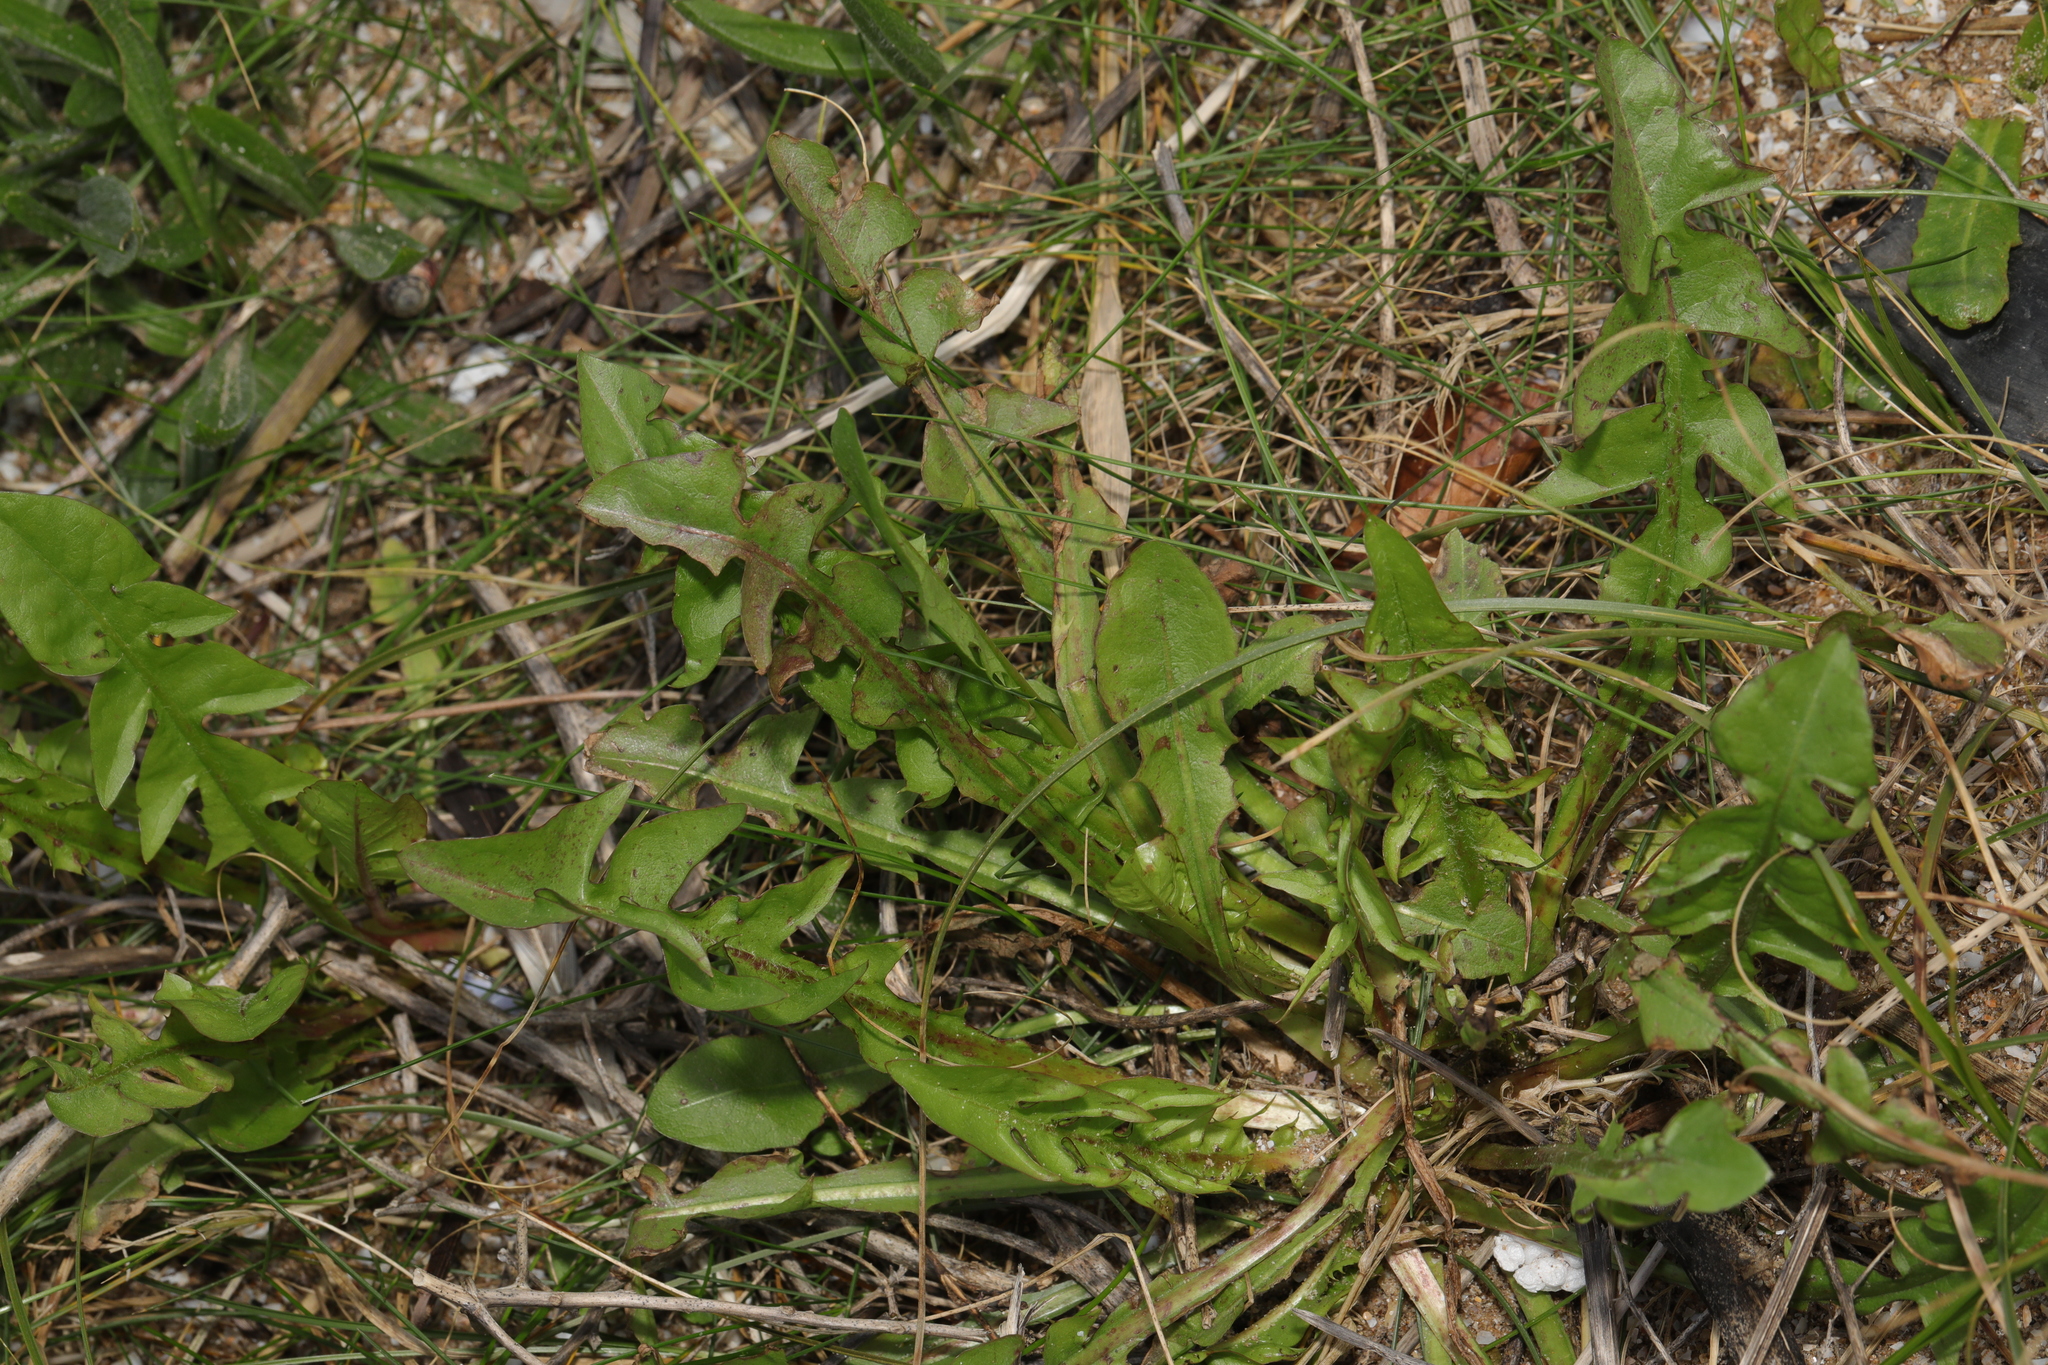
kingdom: Plantae
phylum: Tracheophyta
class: Magnoliopsida
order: Asterales
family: Asteraceae
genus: Taraxacum
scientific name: Taraxacum officinale
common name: Common dandelion
